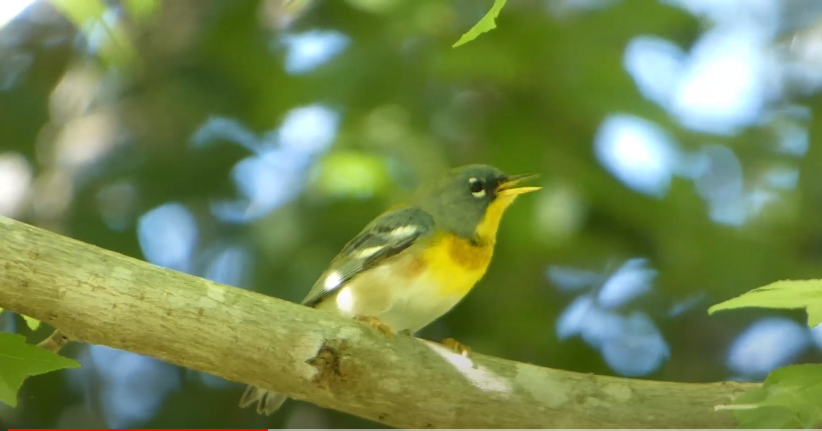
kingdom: Animalia
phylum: Chordata
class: Aves
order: Passeriformes
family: Parulidae
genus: Setophaga
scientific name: Setophaga americana
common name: Northern parula
